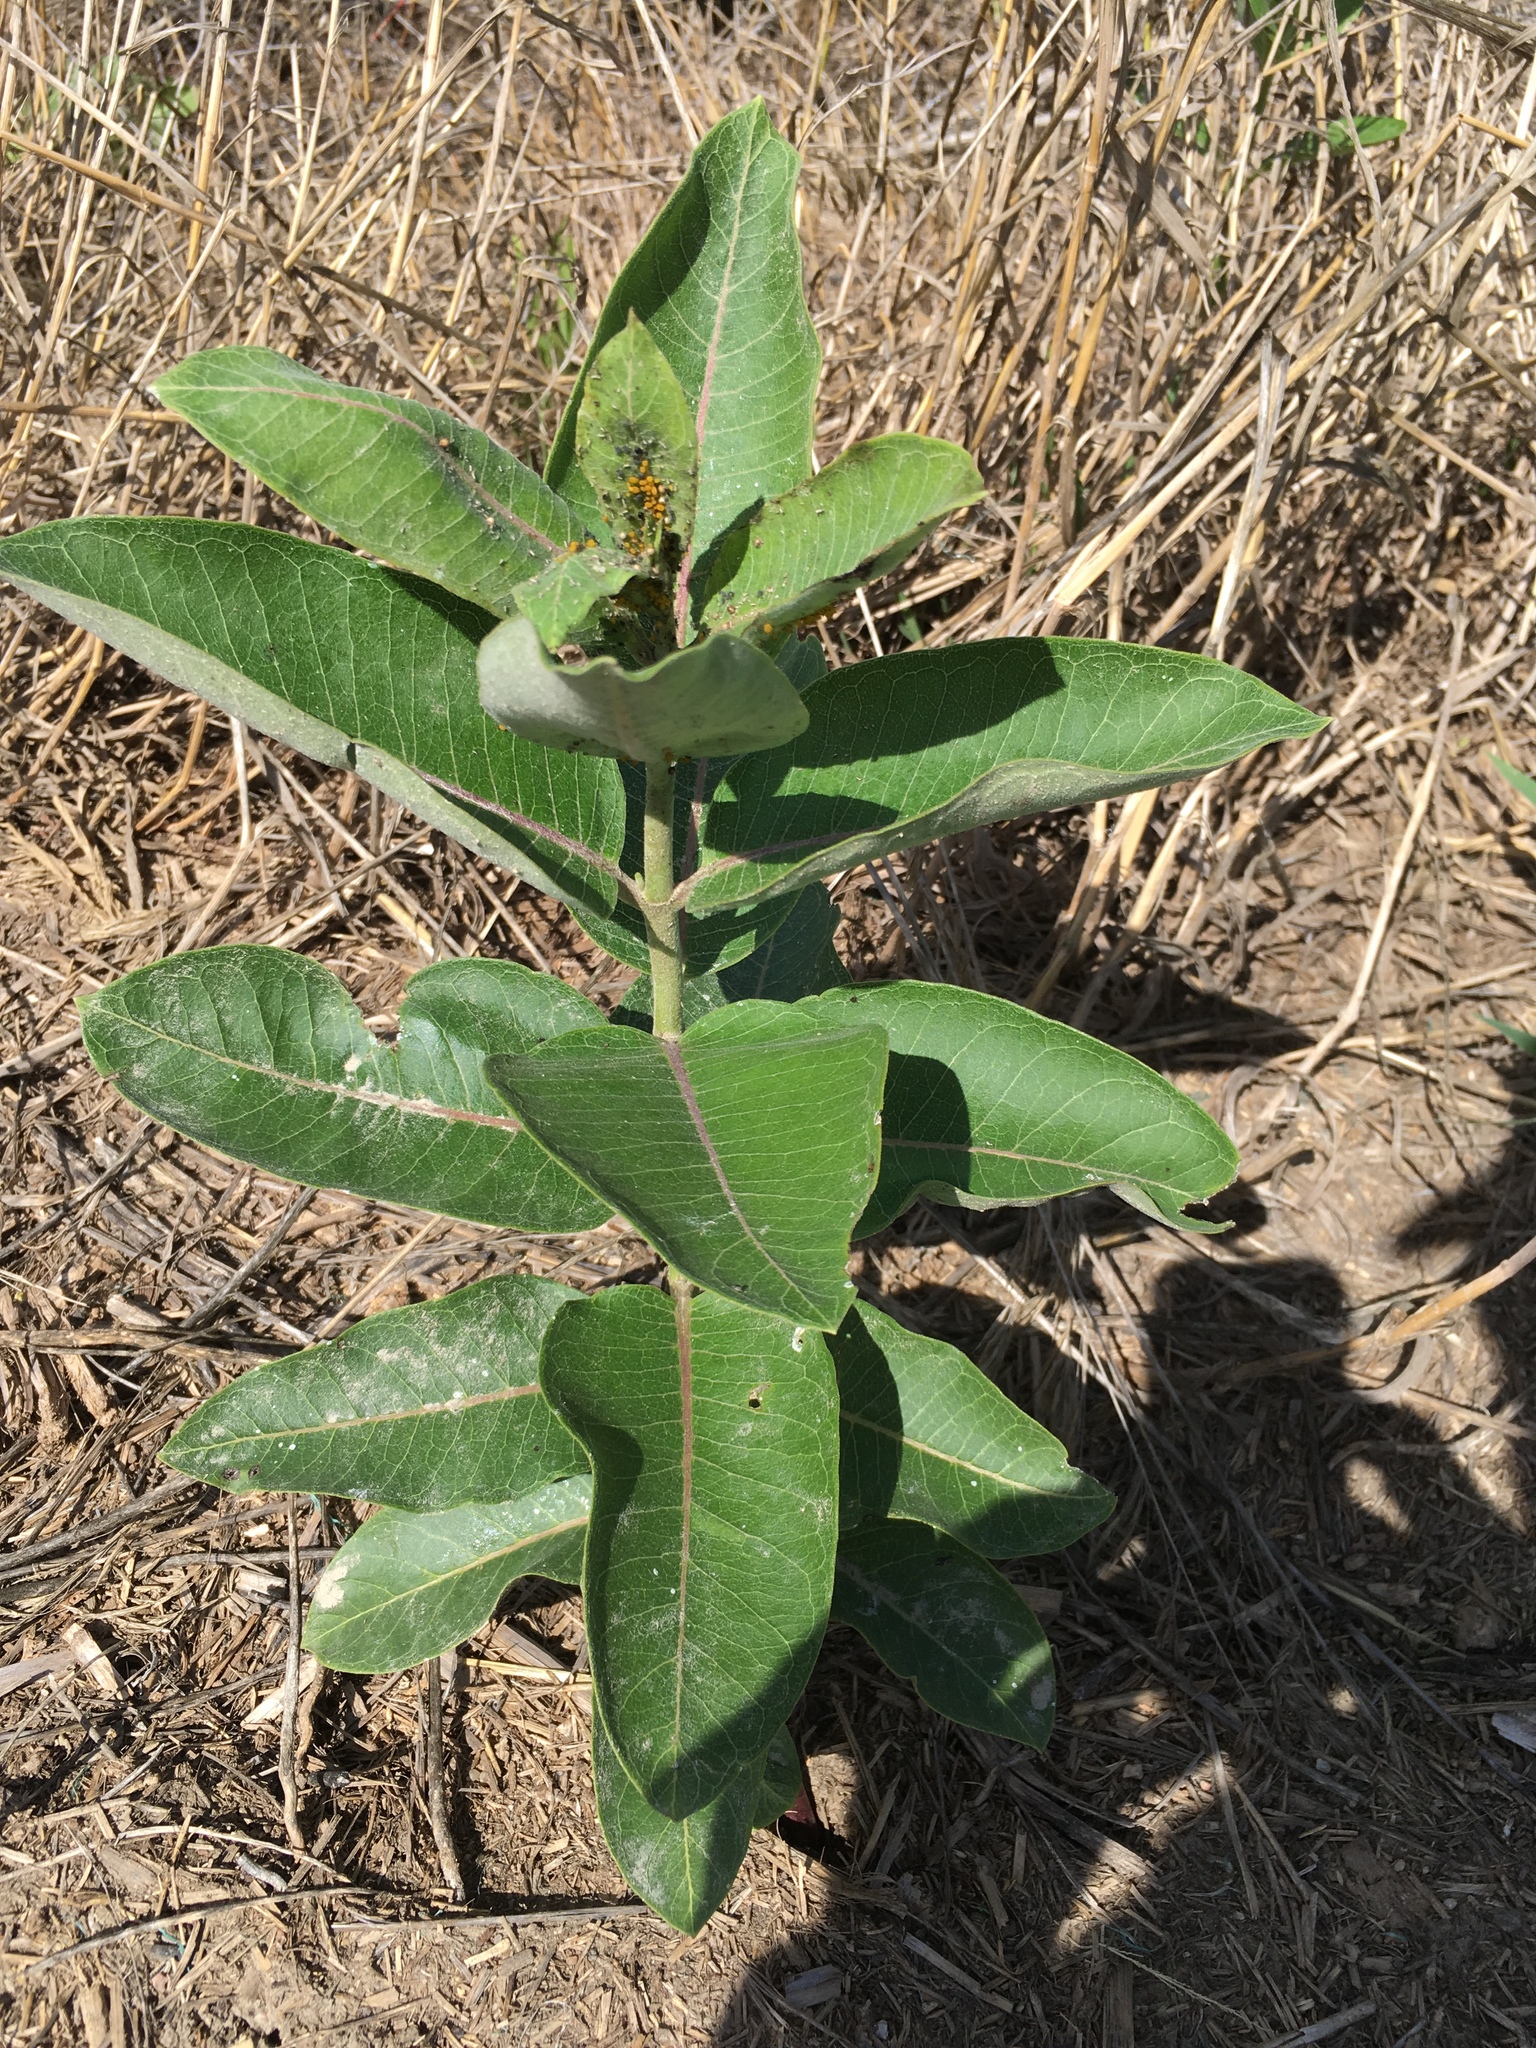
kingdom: Plantae
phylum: Tracheophyta
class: Magnoliopsida
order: Gentianales
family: Apocynaceae
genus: Asclepias
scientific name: Asclepias syriaca
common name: Common milkweed
